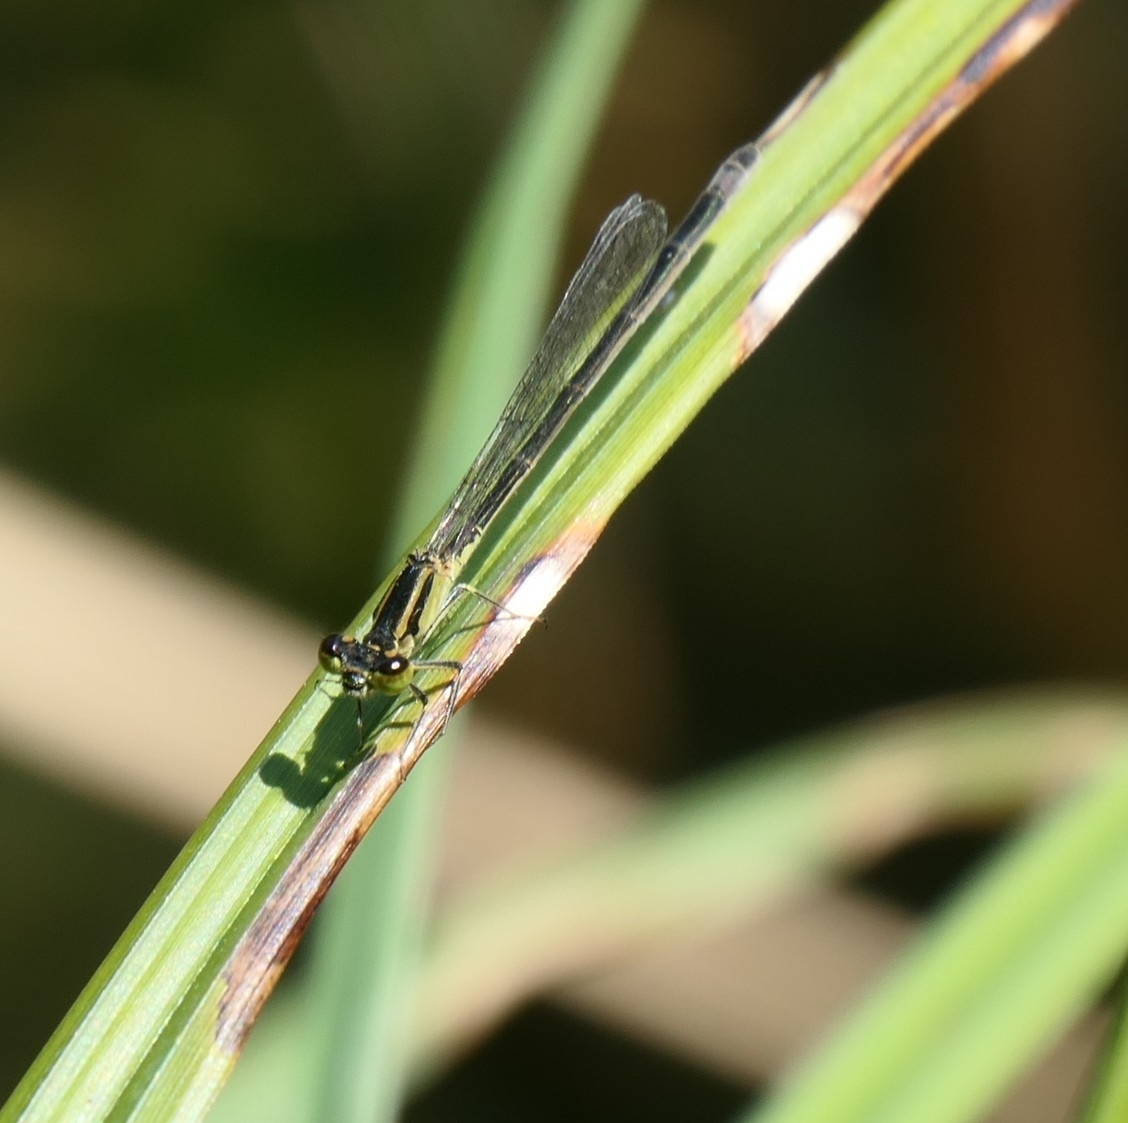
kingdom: Animalia
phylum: Arthropoda
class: Insecta
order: Odonata
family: Coenagrionidae
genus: Ischnura
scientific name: Ischnura elegans
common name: Blue-tailed damselfly
